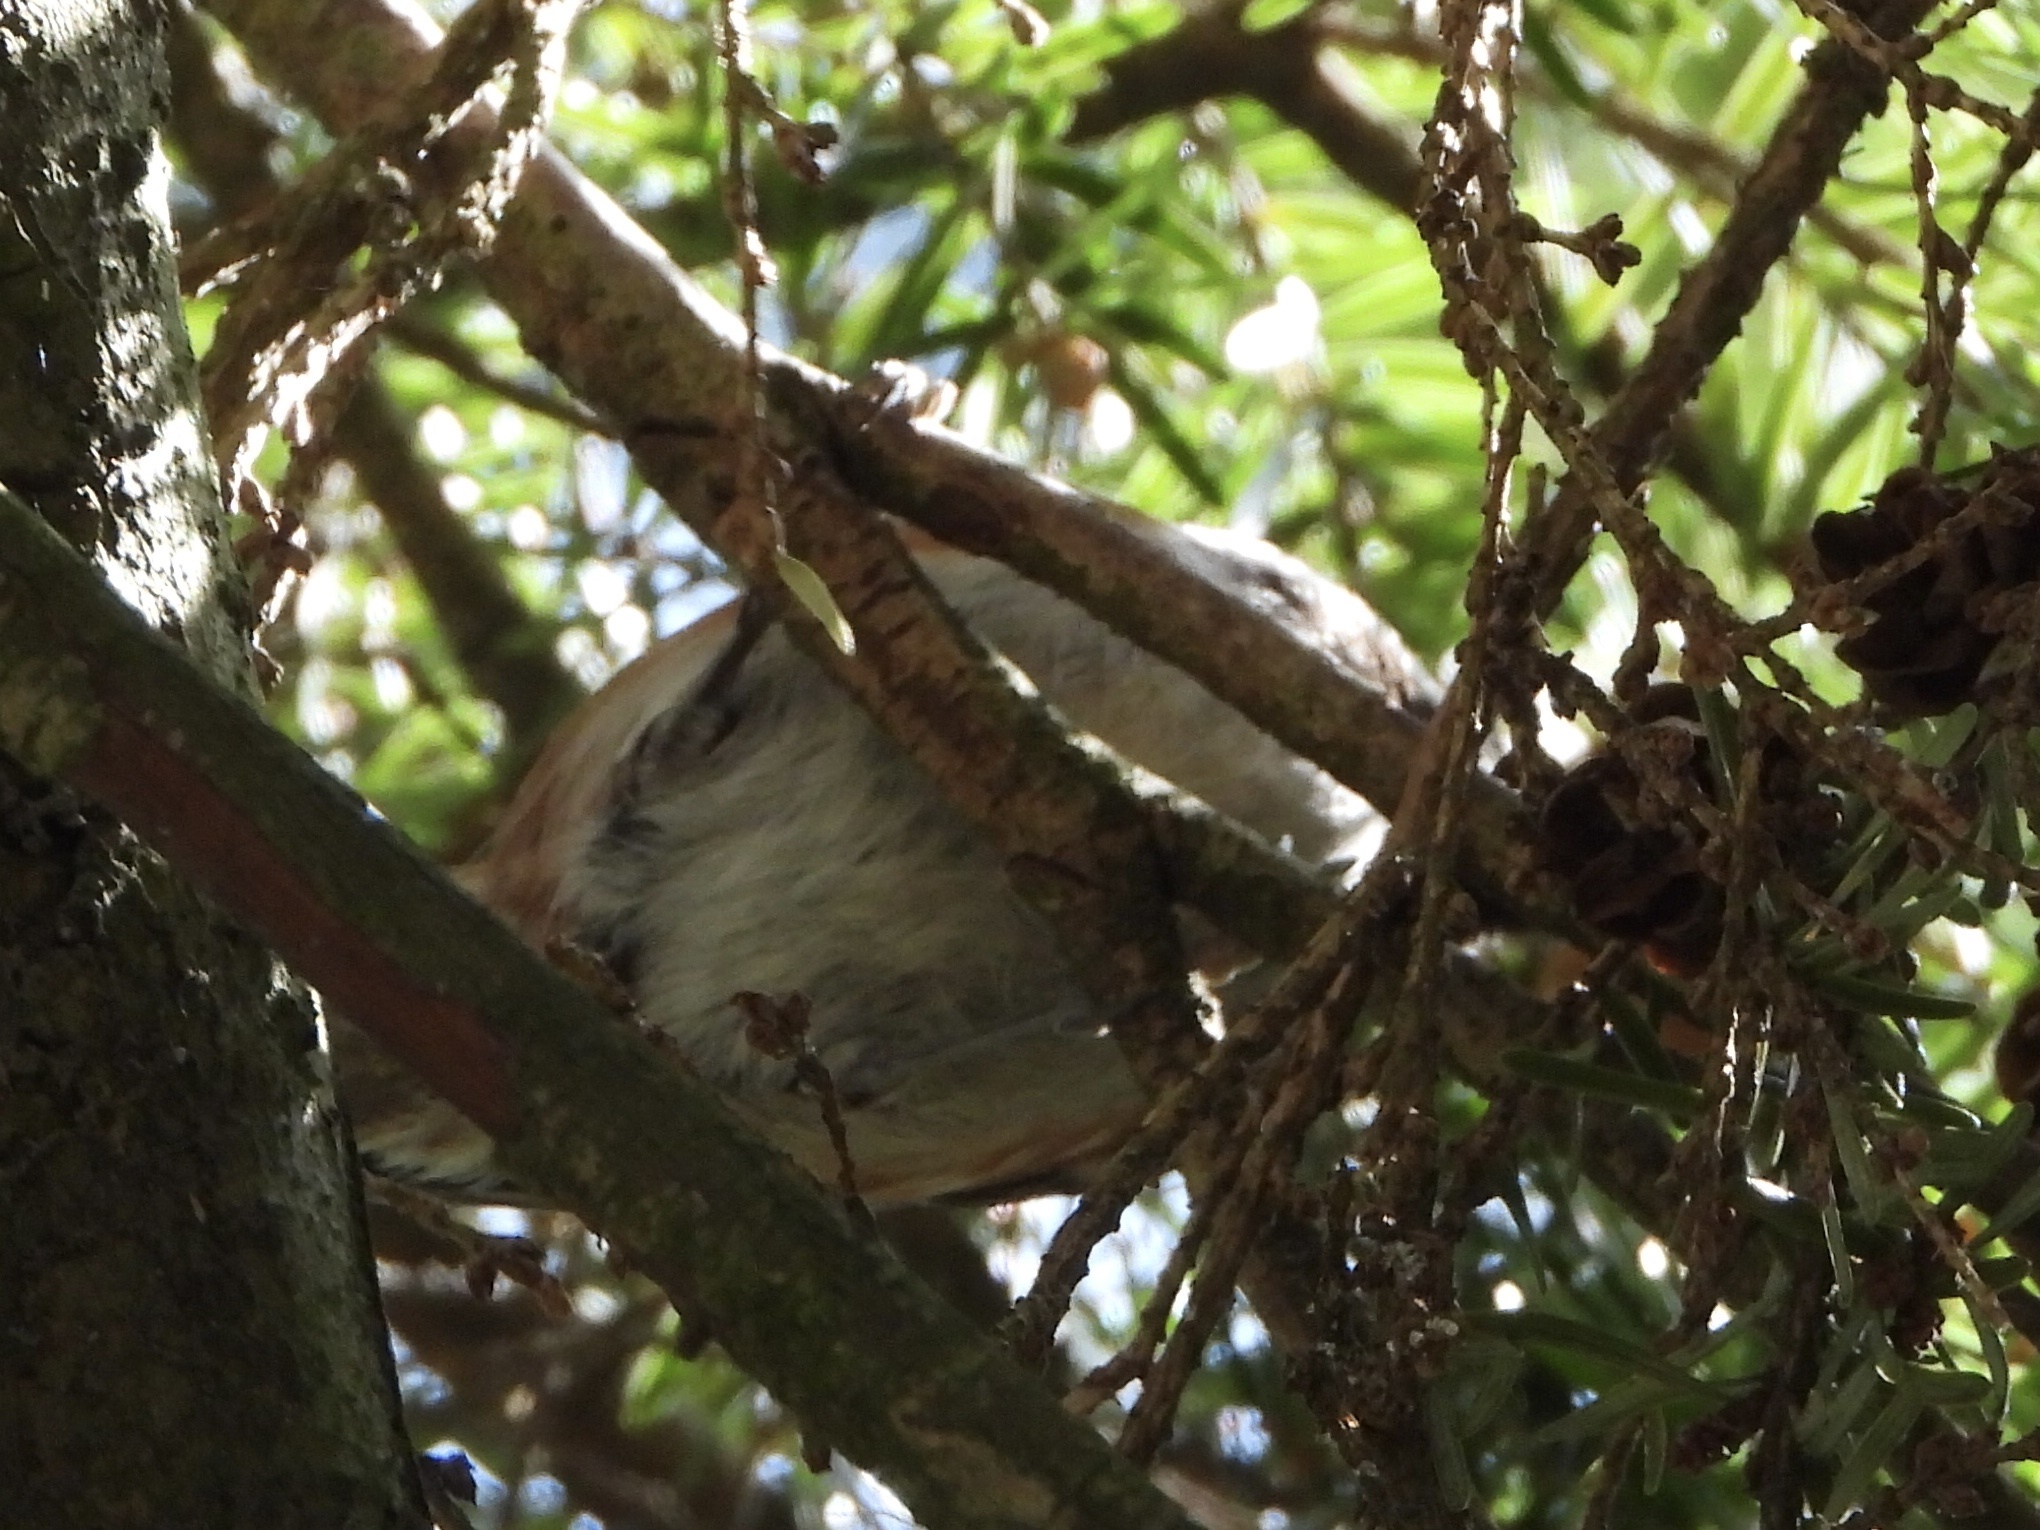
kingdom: Animalia
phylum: Chordata
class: Aves
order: Passeriformes
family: Paridae
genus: Poecile
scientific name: Poecile rufescens
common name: Chestnut-backed chickadee
